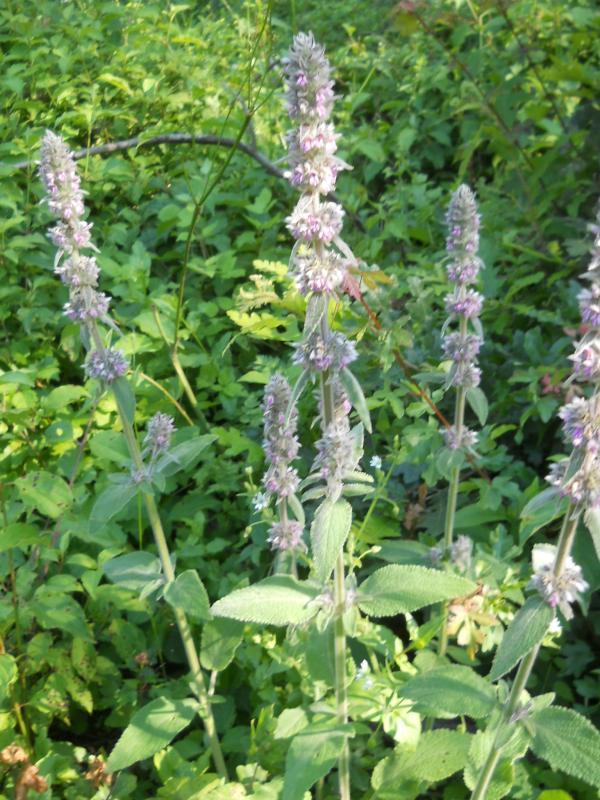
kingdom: Plantae
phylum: Tracheophyta
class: Magnoliopsida
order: Lamiales
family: Lamiaceae
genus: Stachys
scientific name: Stachys germanica
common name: Downy woundwort
